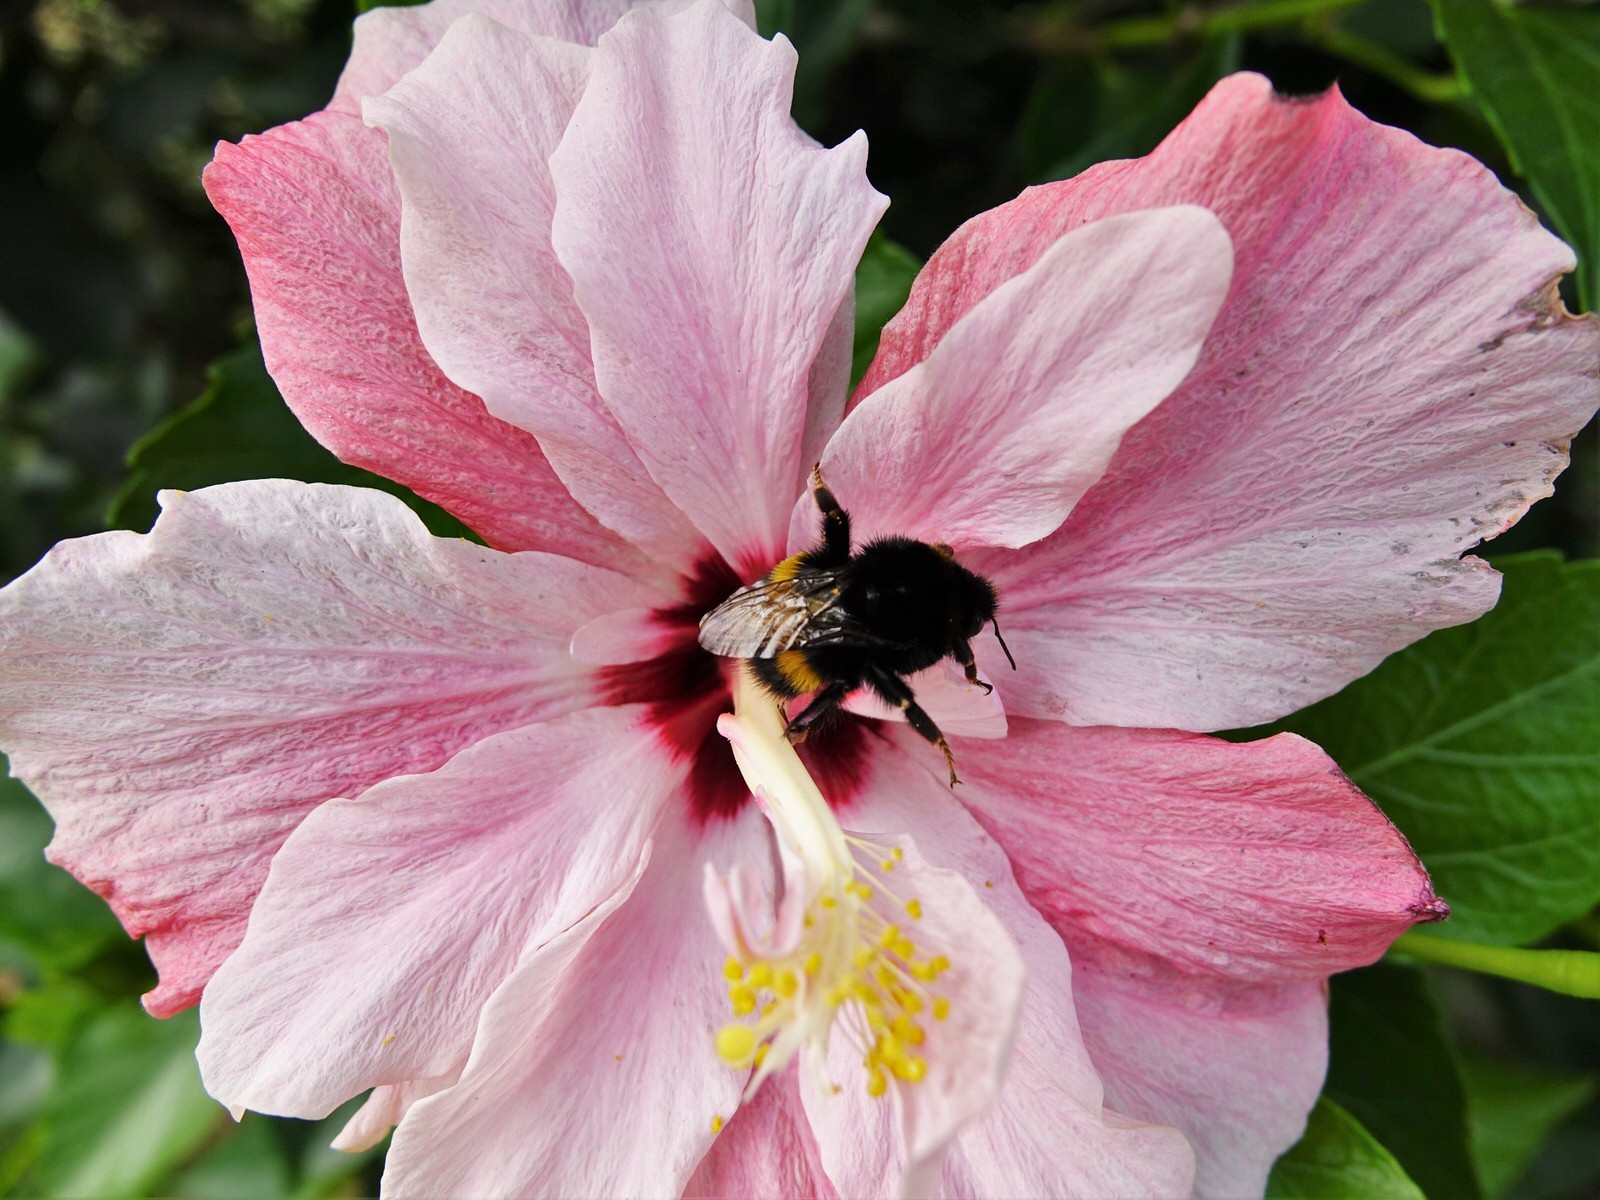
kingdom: Animalia
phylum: Arthropoda
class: Insecta
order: Hymenoptera
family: Apidae
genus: Bombus
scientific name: Bombus terrestris
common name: Buff-tailed bumblebee
